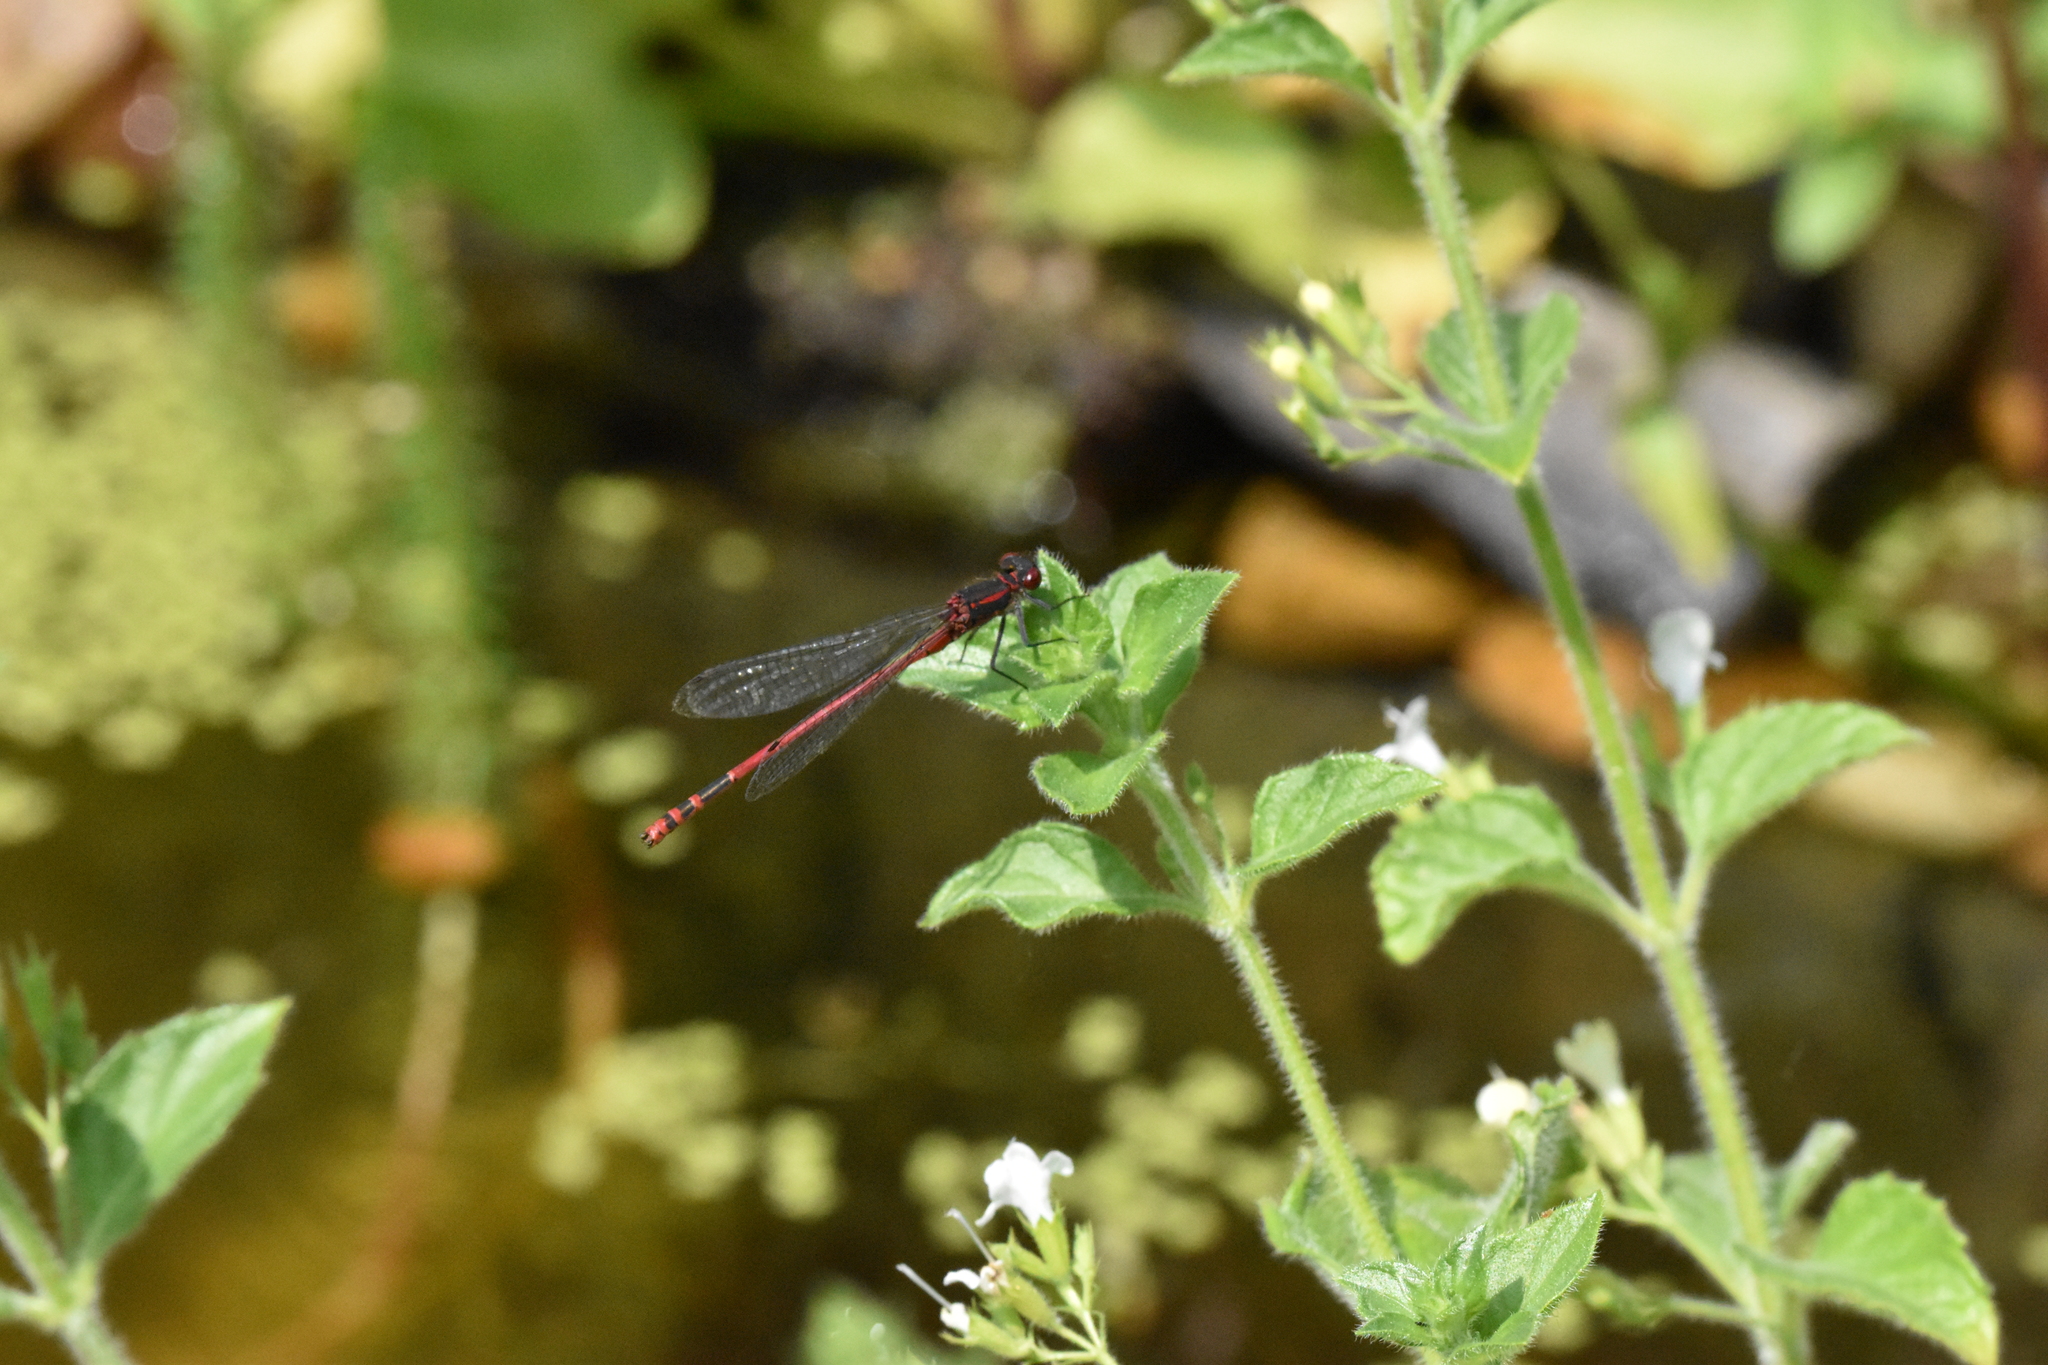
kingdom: Animalia
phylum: Arthropoda
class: Insecta
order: Odonata
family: Coenagrionidae
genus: Pyrrhosoma
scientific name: Pyrrhosoma nymphula
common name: Large red damsel
